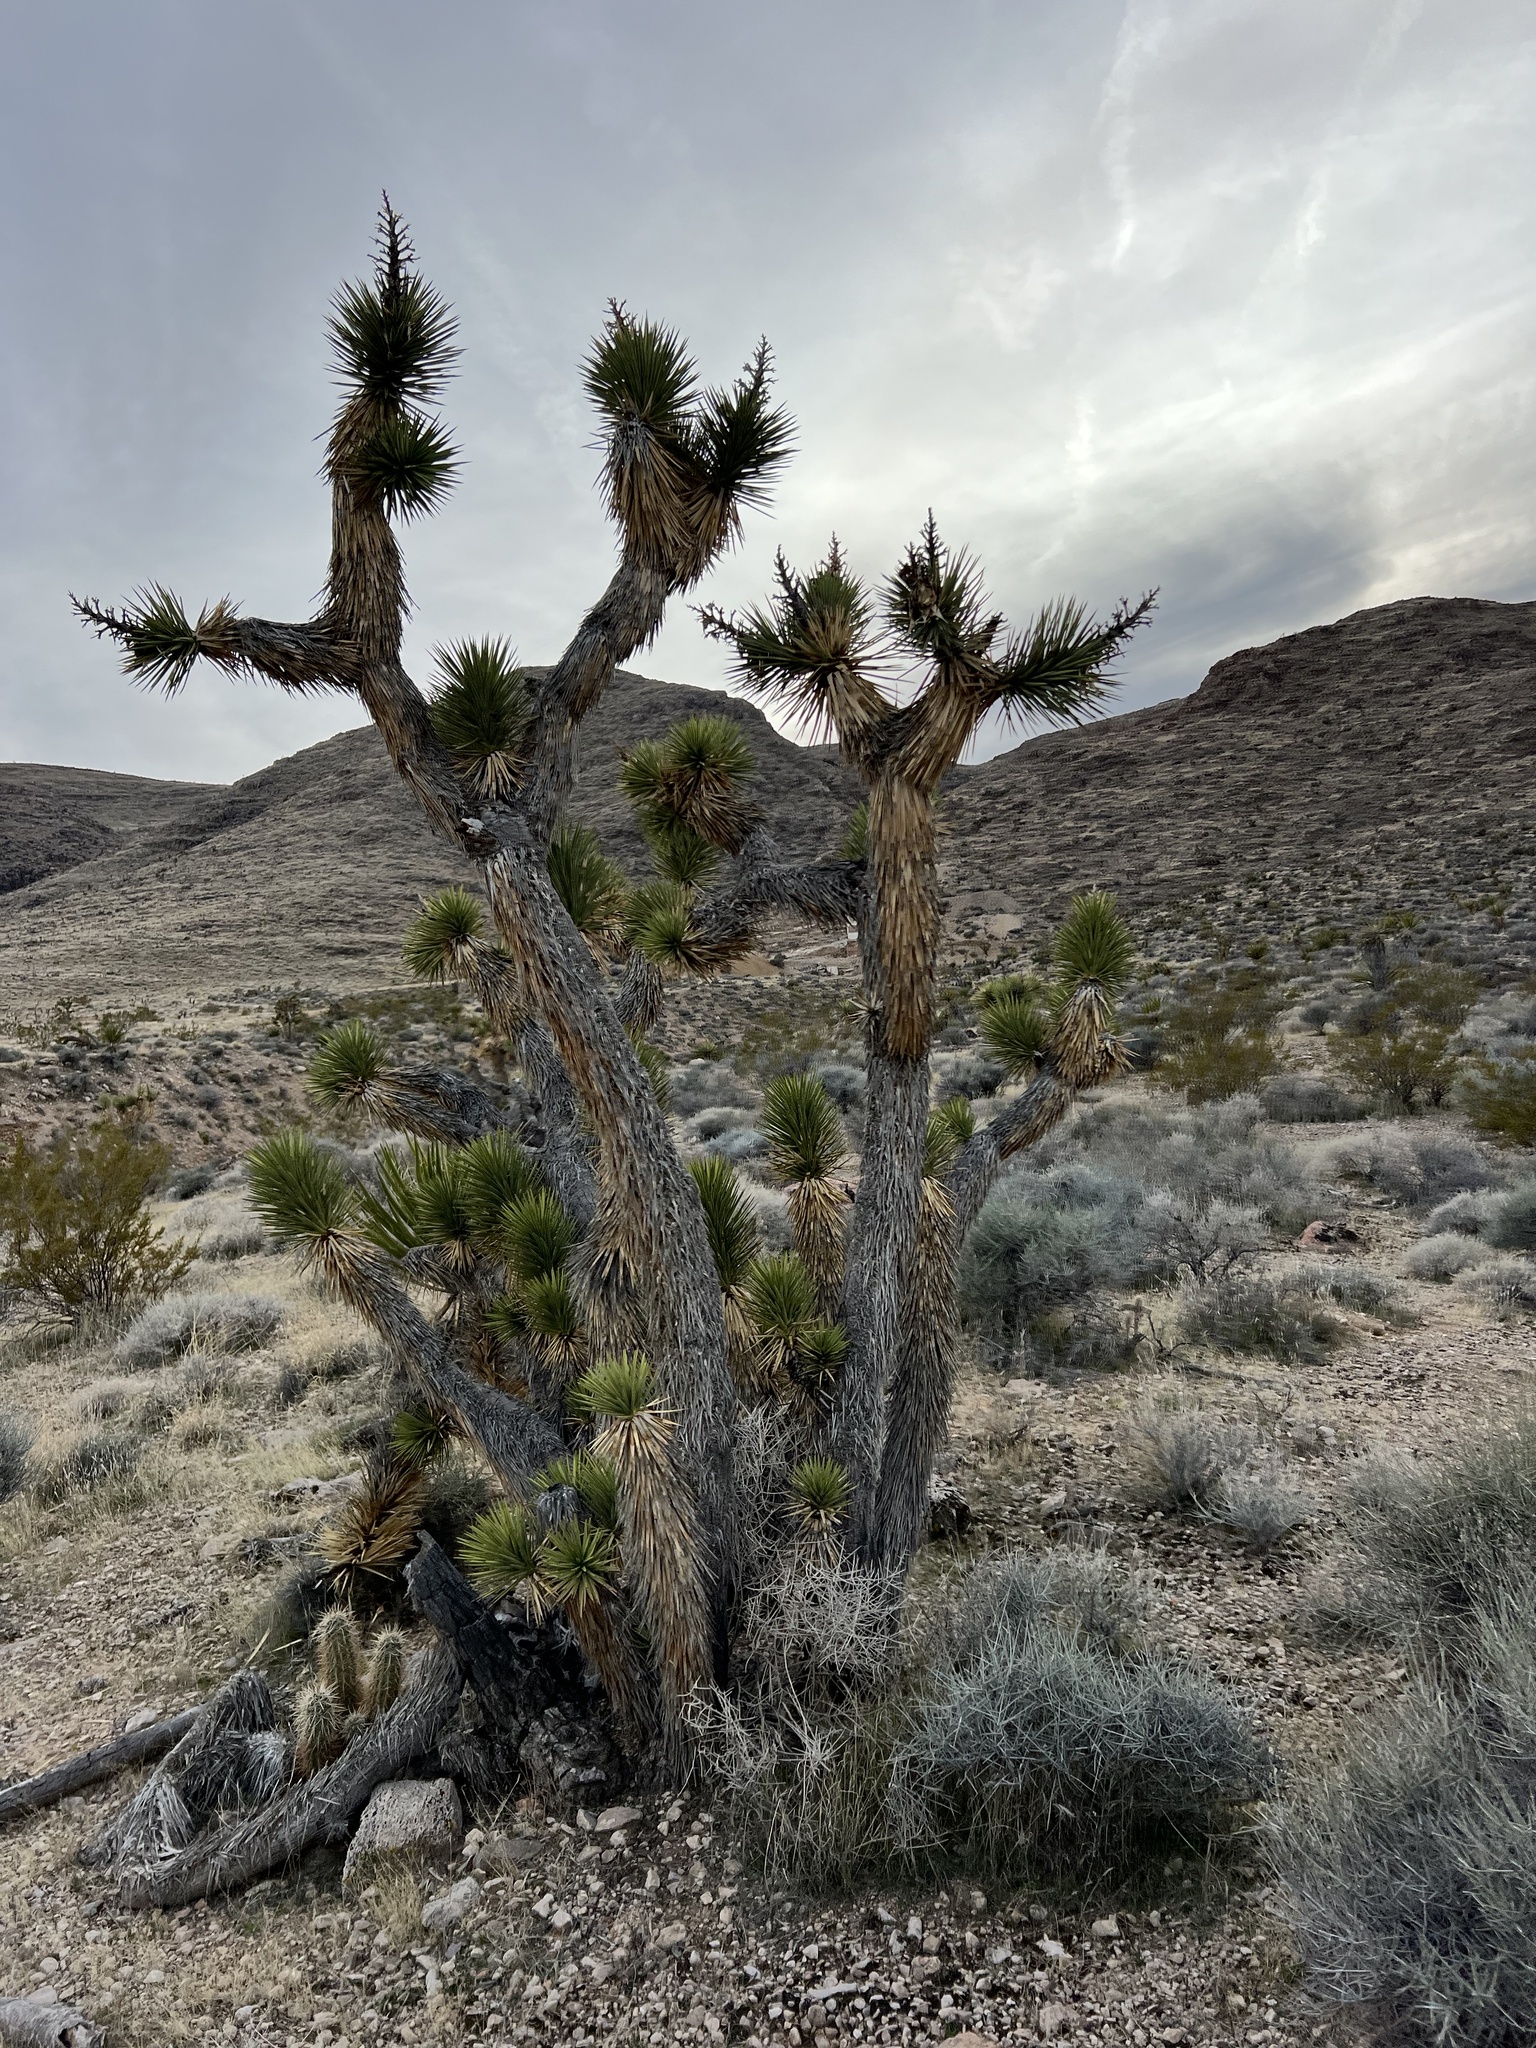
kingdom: Plantae
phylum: Tracheophyta
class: Liliopsida
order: Asparagales
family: Asparagaceae
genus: Yucca
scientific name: Yucca brevifolia
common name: Joshua tree
